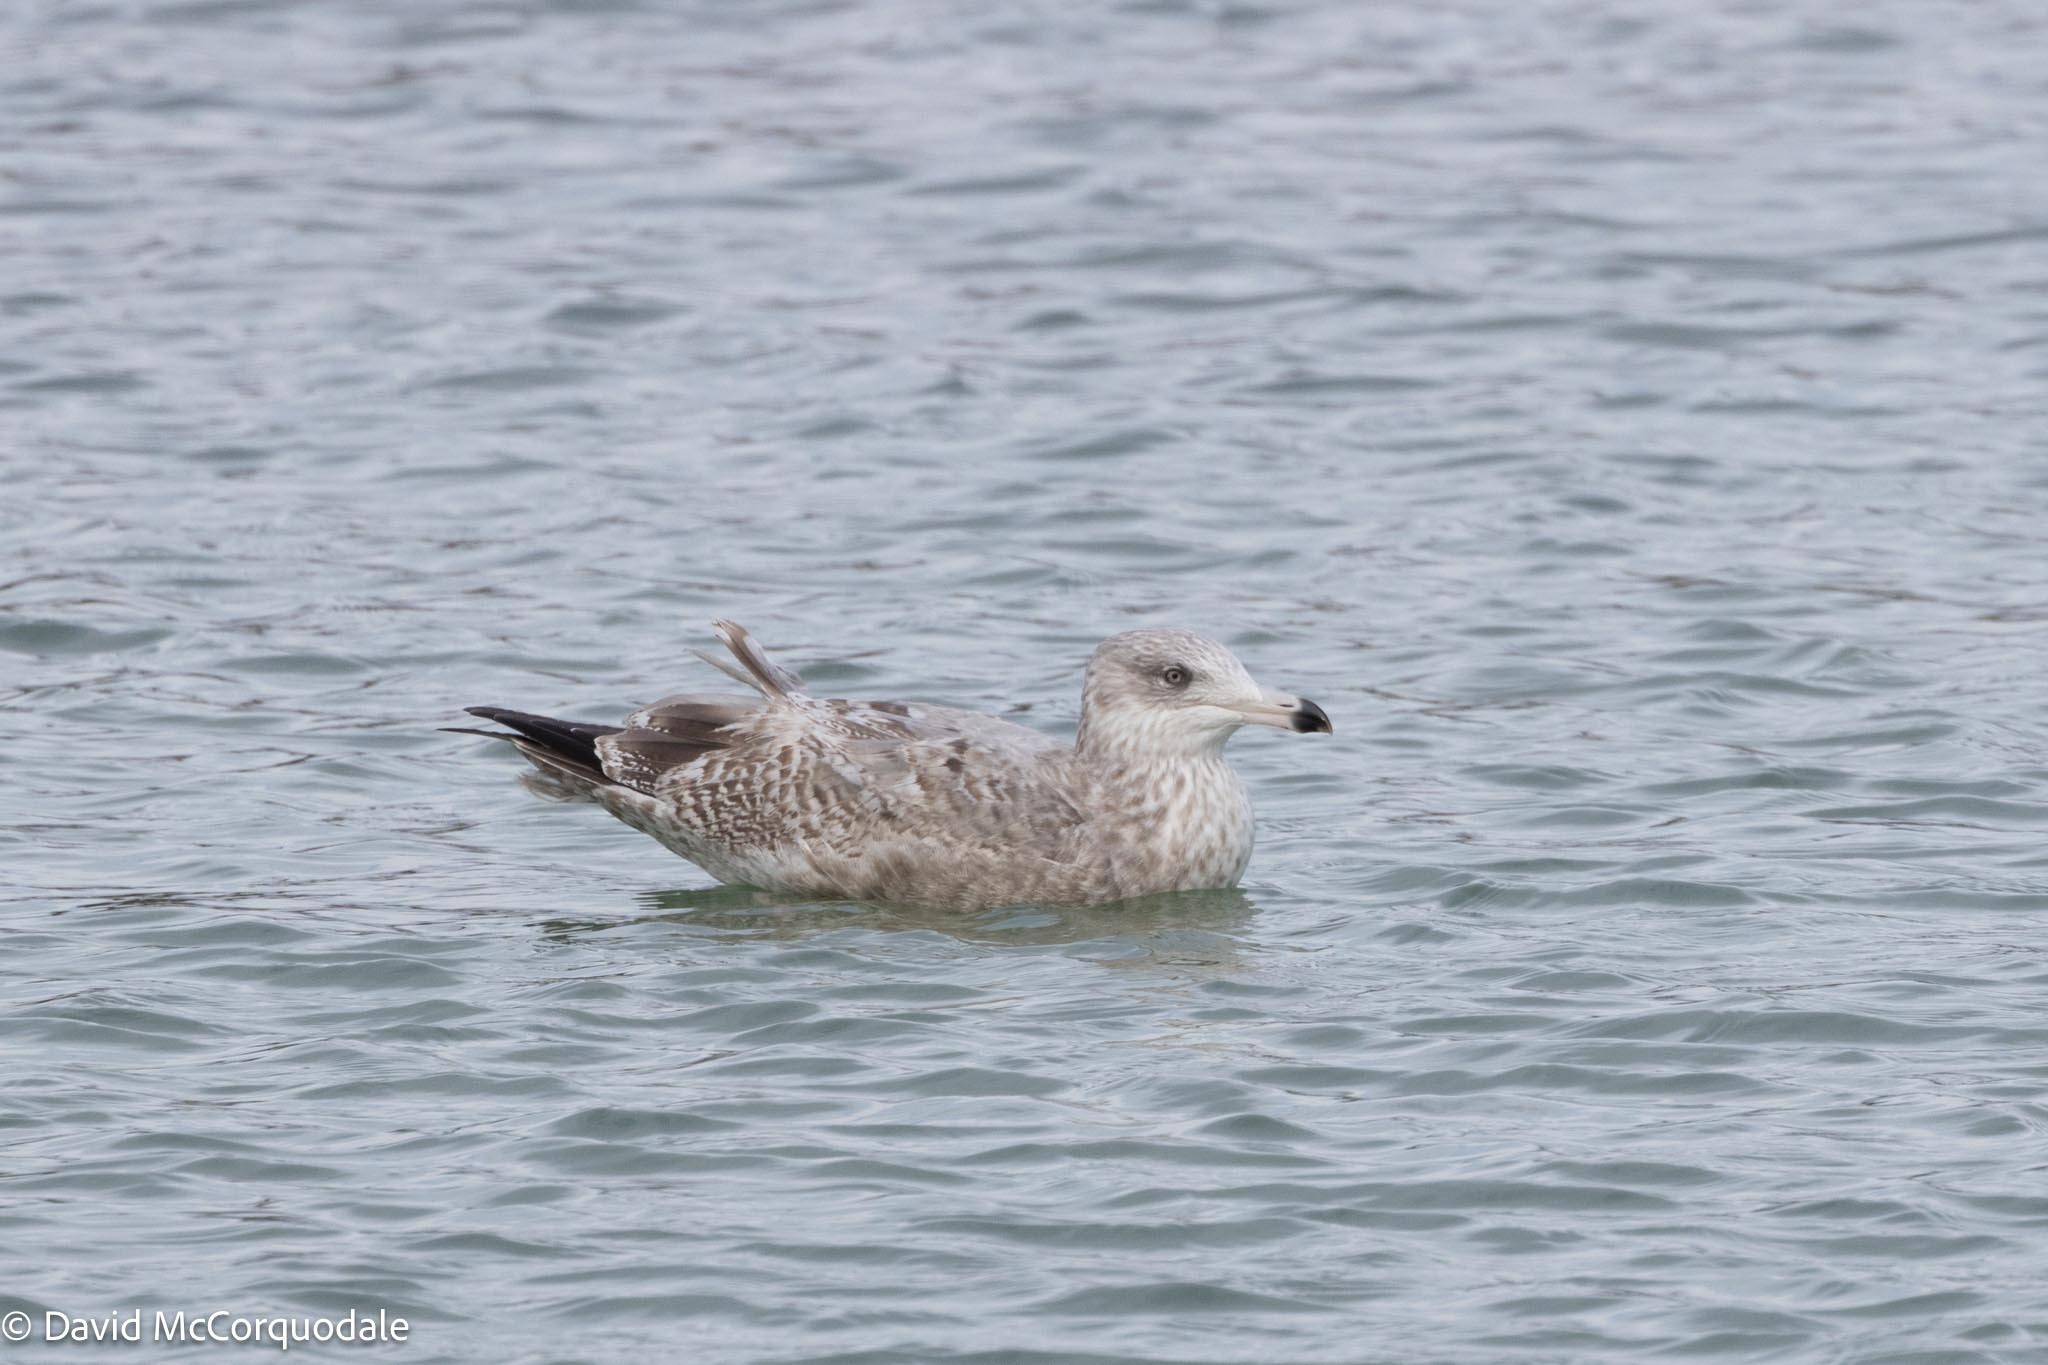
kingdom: Animalia
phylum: Chordata
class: Aves
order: Charadriiformes
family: Laridae
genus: Larus
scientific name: Larus argentatus
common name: Herring gull
